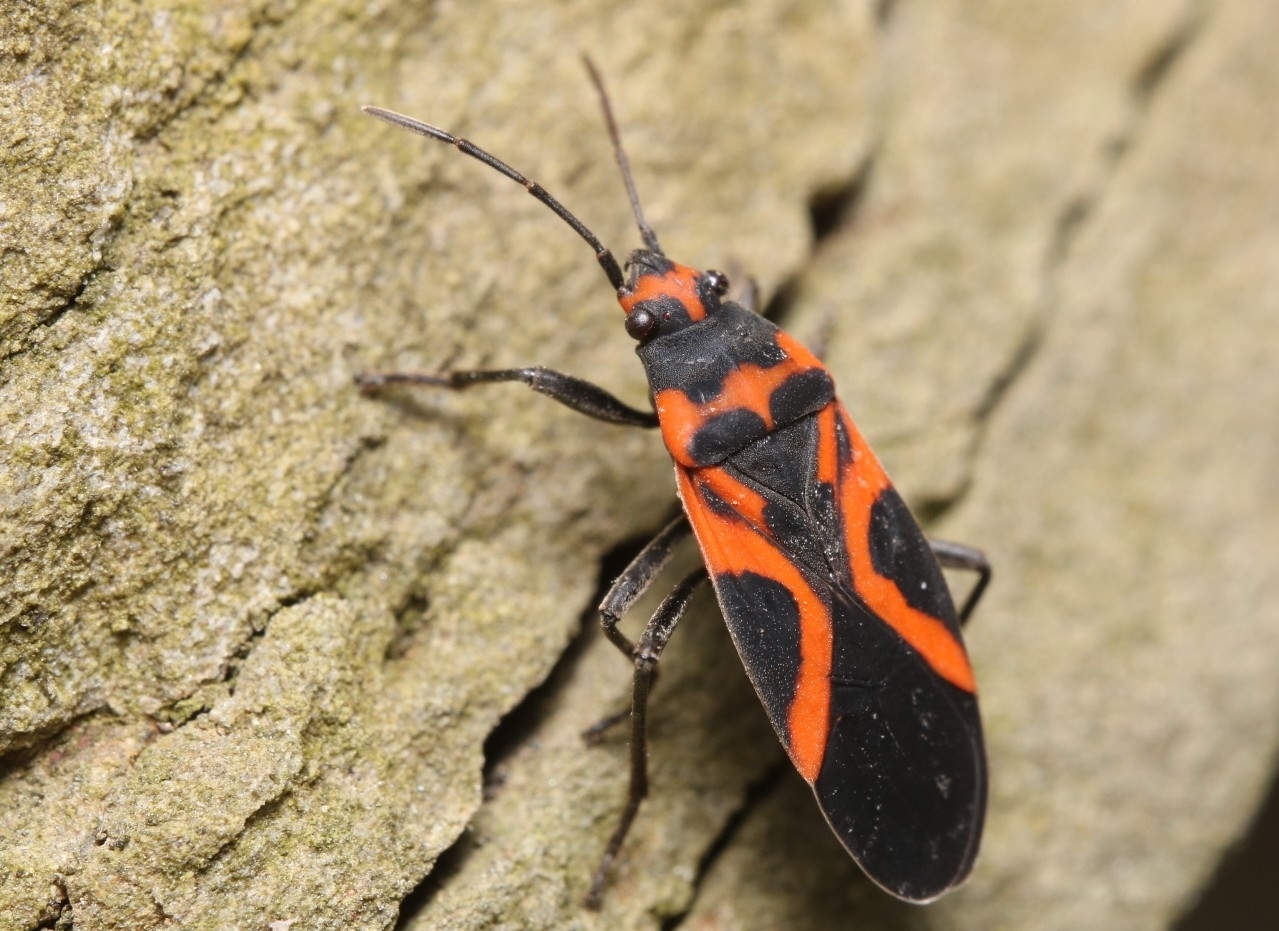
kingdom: Animalia
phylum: Arthropoda
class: Insecta
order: Hemiptera
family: Lygaeidae
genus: Lygaeus
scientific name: Lygaeus turcicus
